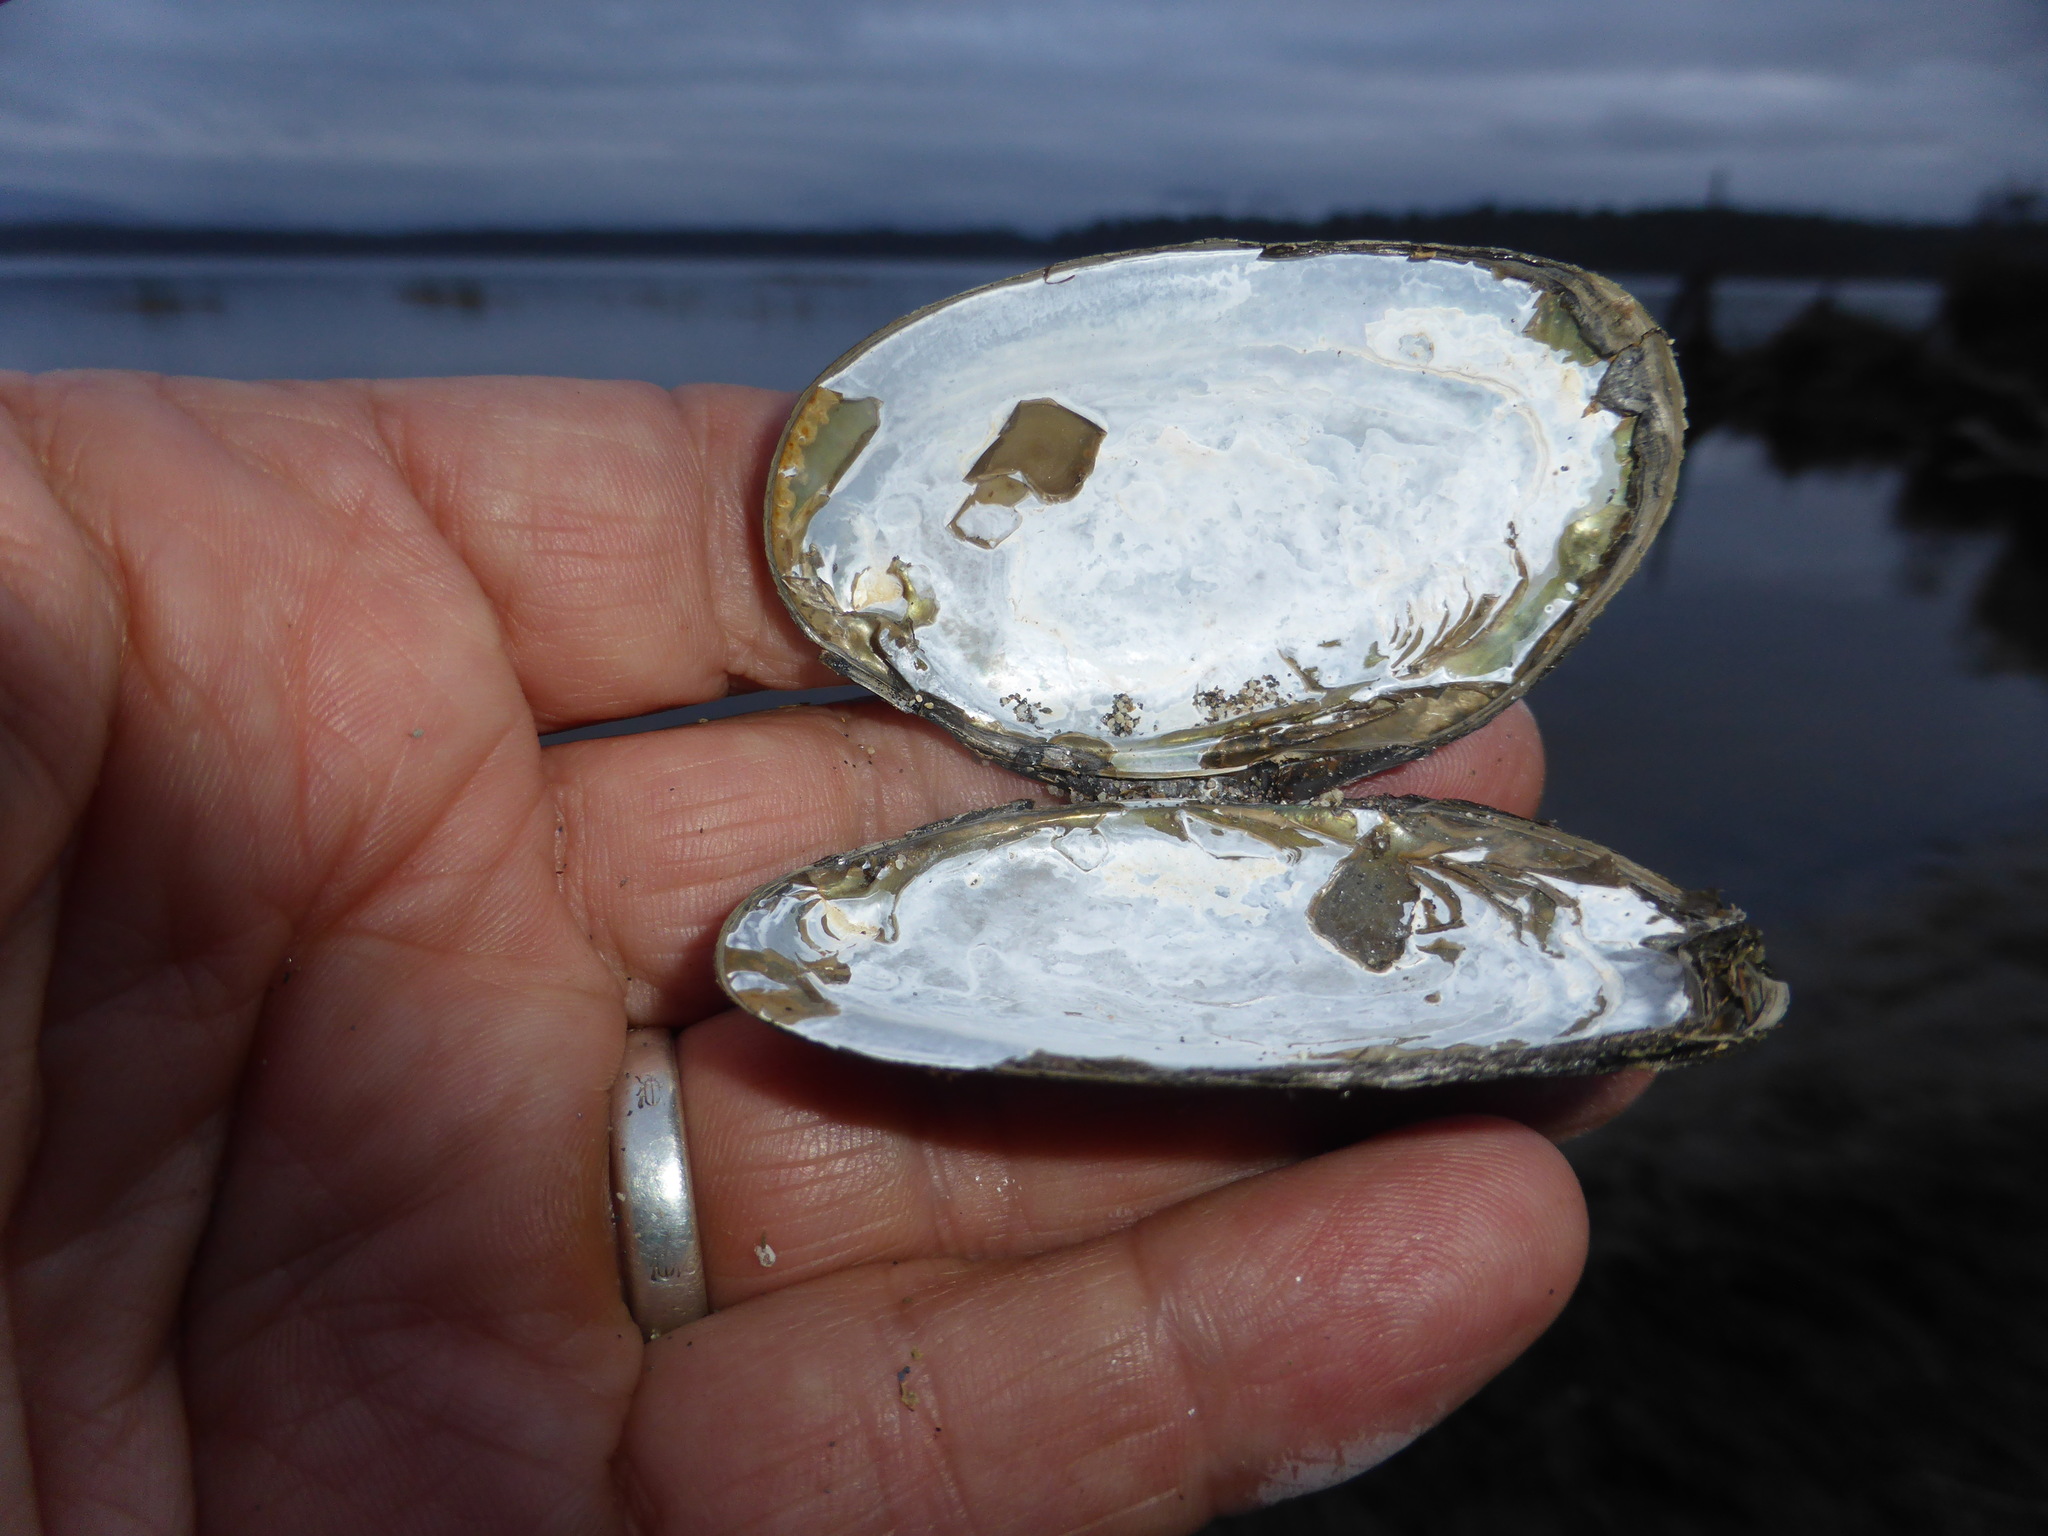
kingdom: Animalia
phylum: Mollusca
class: Bivalvia
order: Unionida
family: Hyriidae
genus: Echyridella
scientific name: Echyridella menziesii
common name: New zealand freshwater mussel
